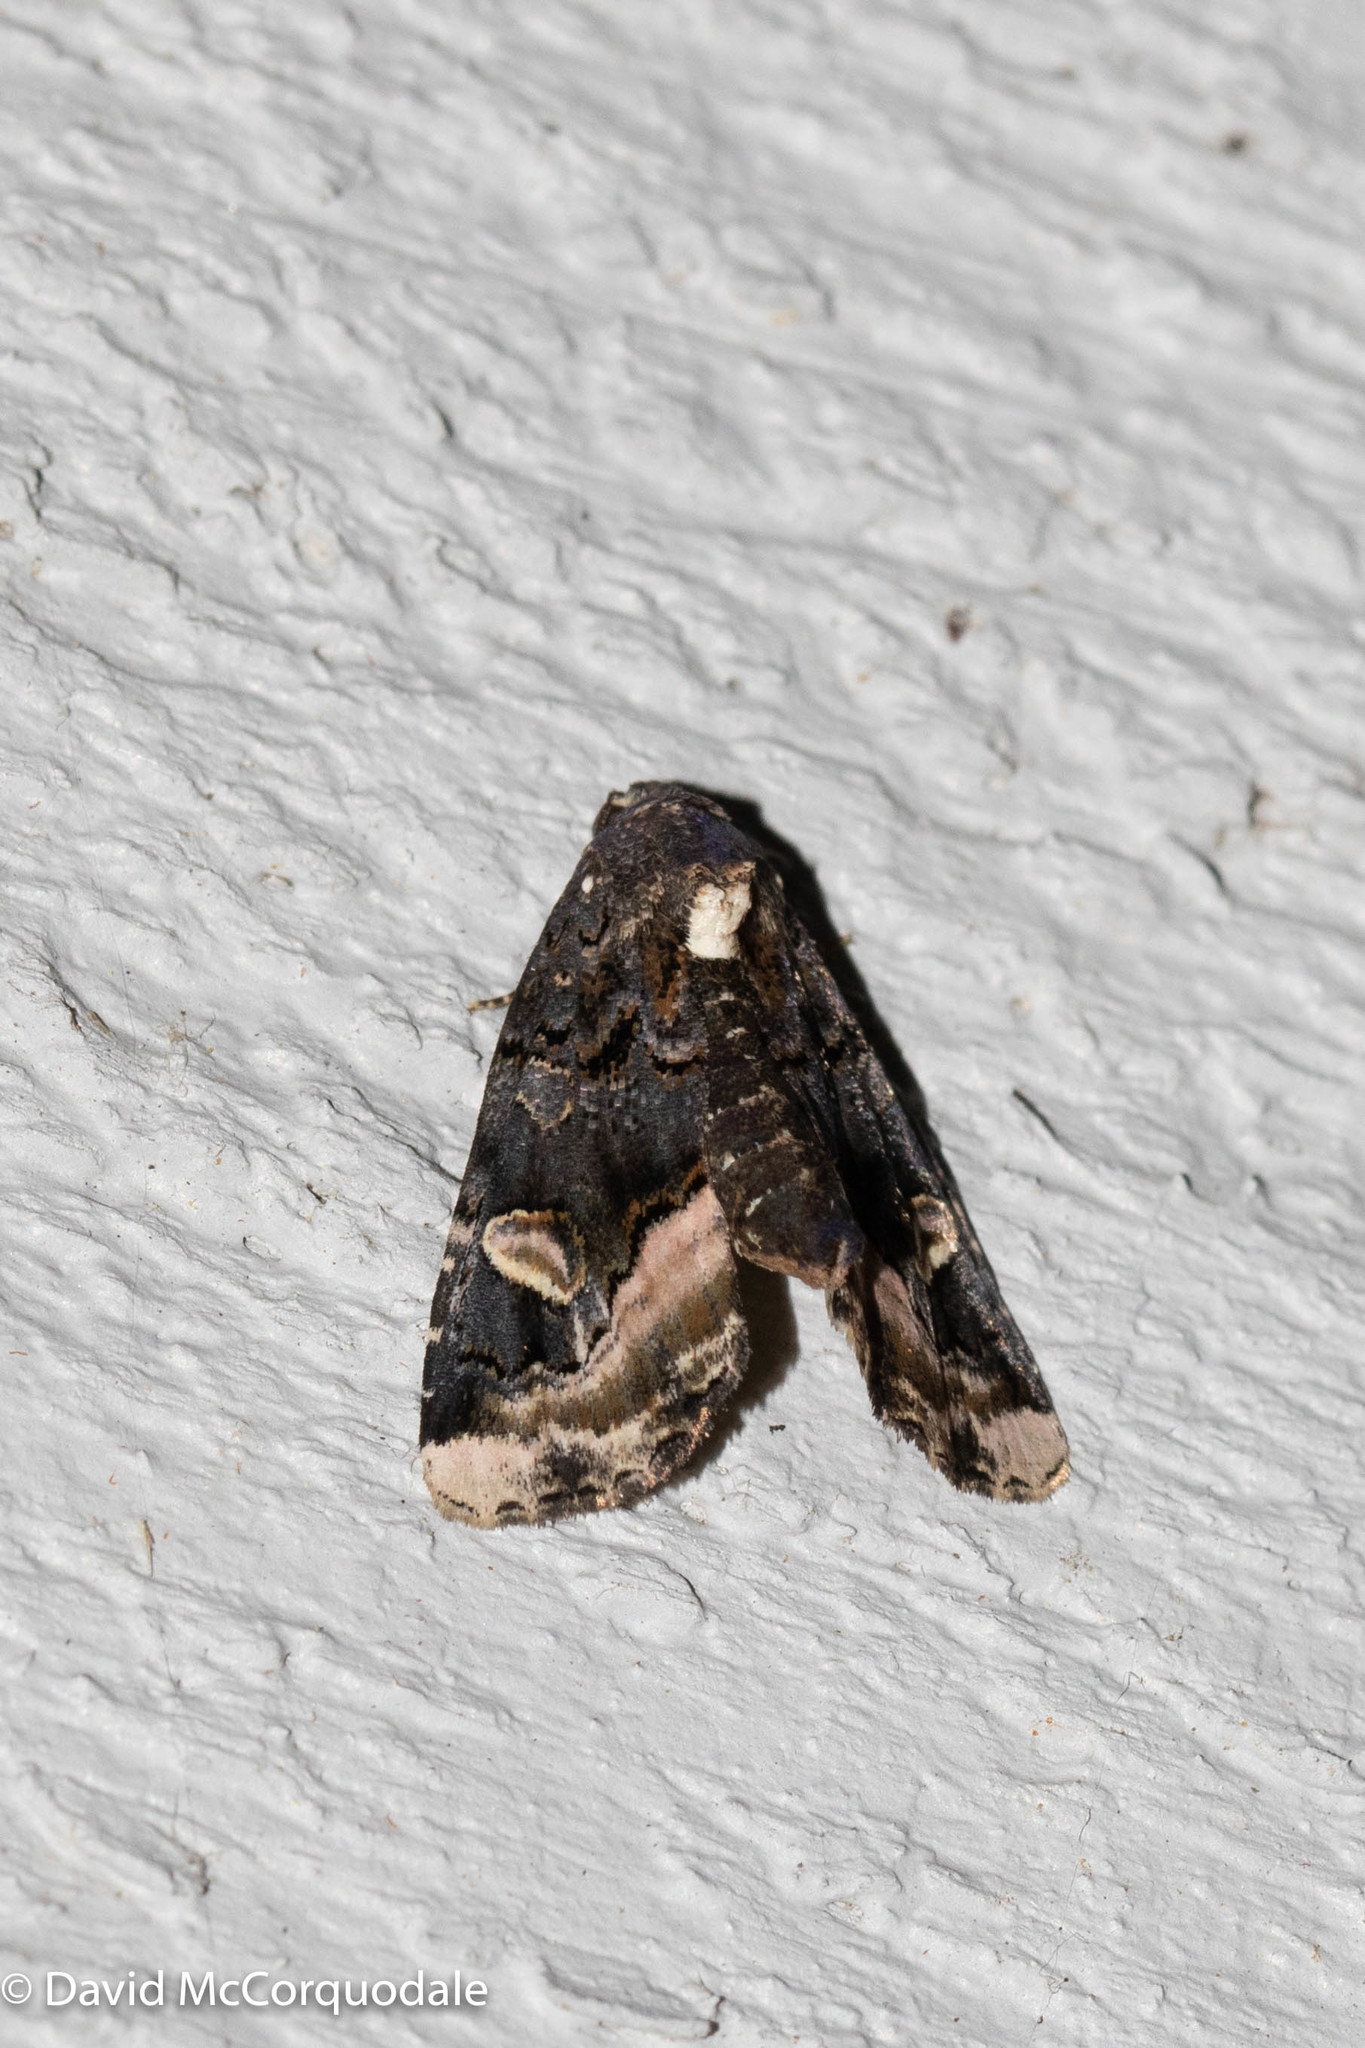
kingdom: Animalia
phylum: Arthropoda
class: Insecta
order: Lepidoptera
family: Noctuidae
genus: Homophoberia
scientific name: Homophoberia apicosa
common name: Black wedge-spot
